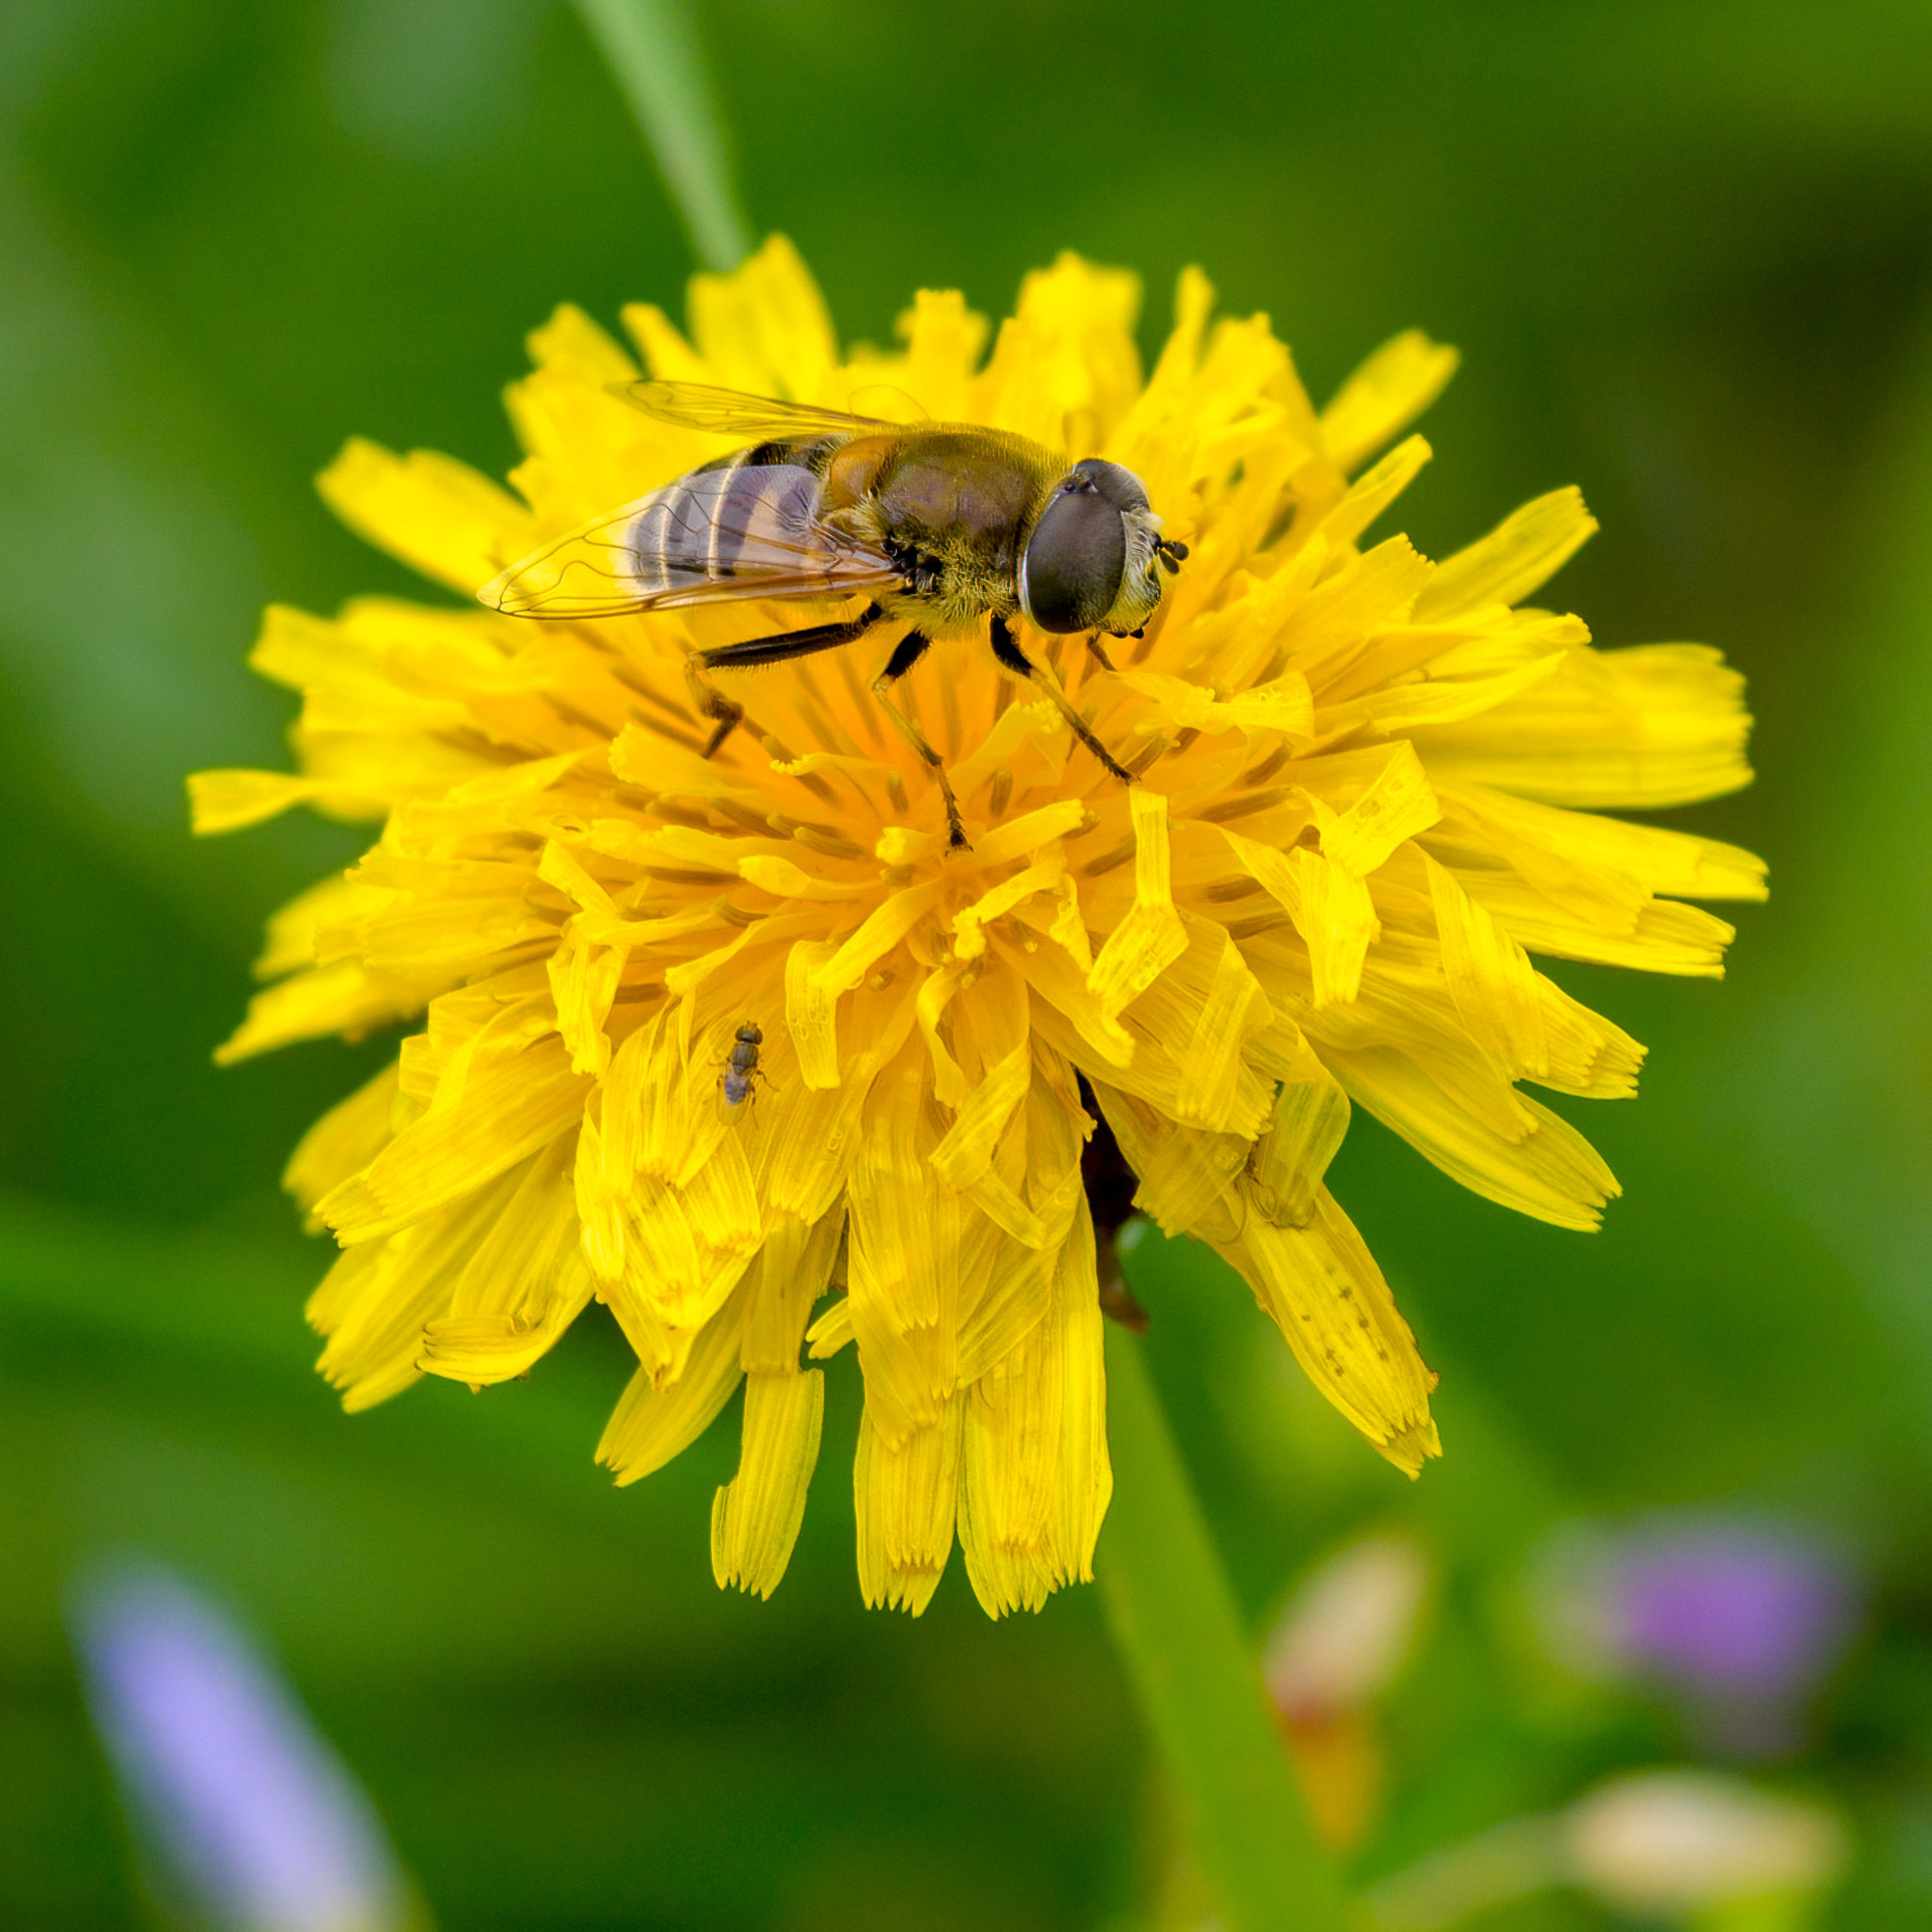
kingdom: Animalia
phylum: Arthropoda
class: Insecta
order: Diptera
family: Syrphidae
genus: Eristalis
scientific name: Eristalis stipator
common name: Yellow-shouldered drone fly
